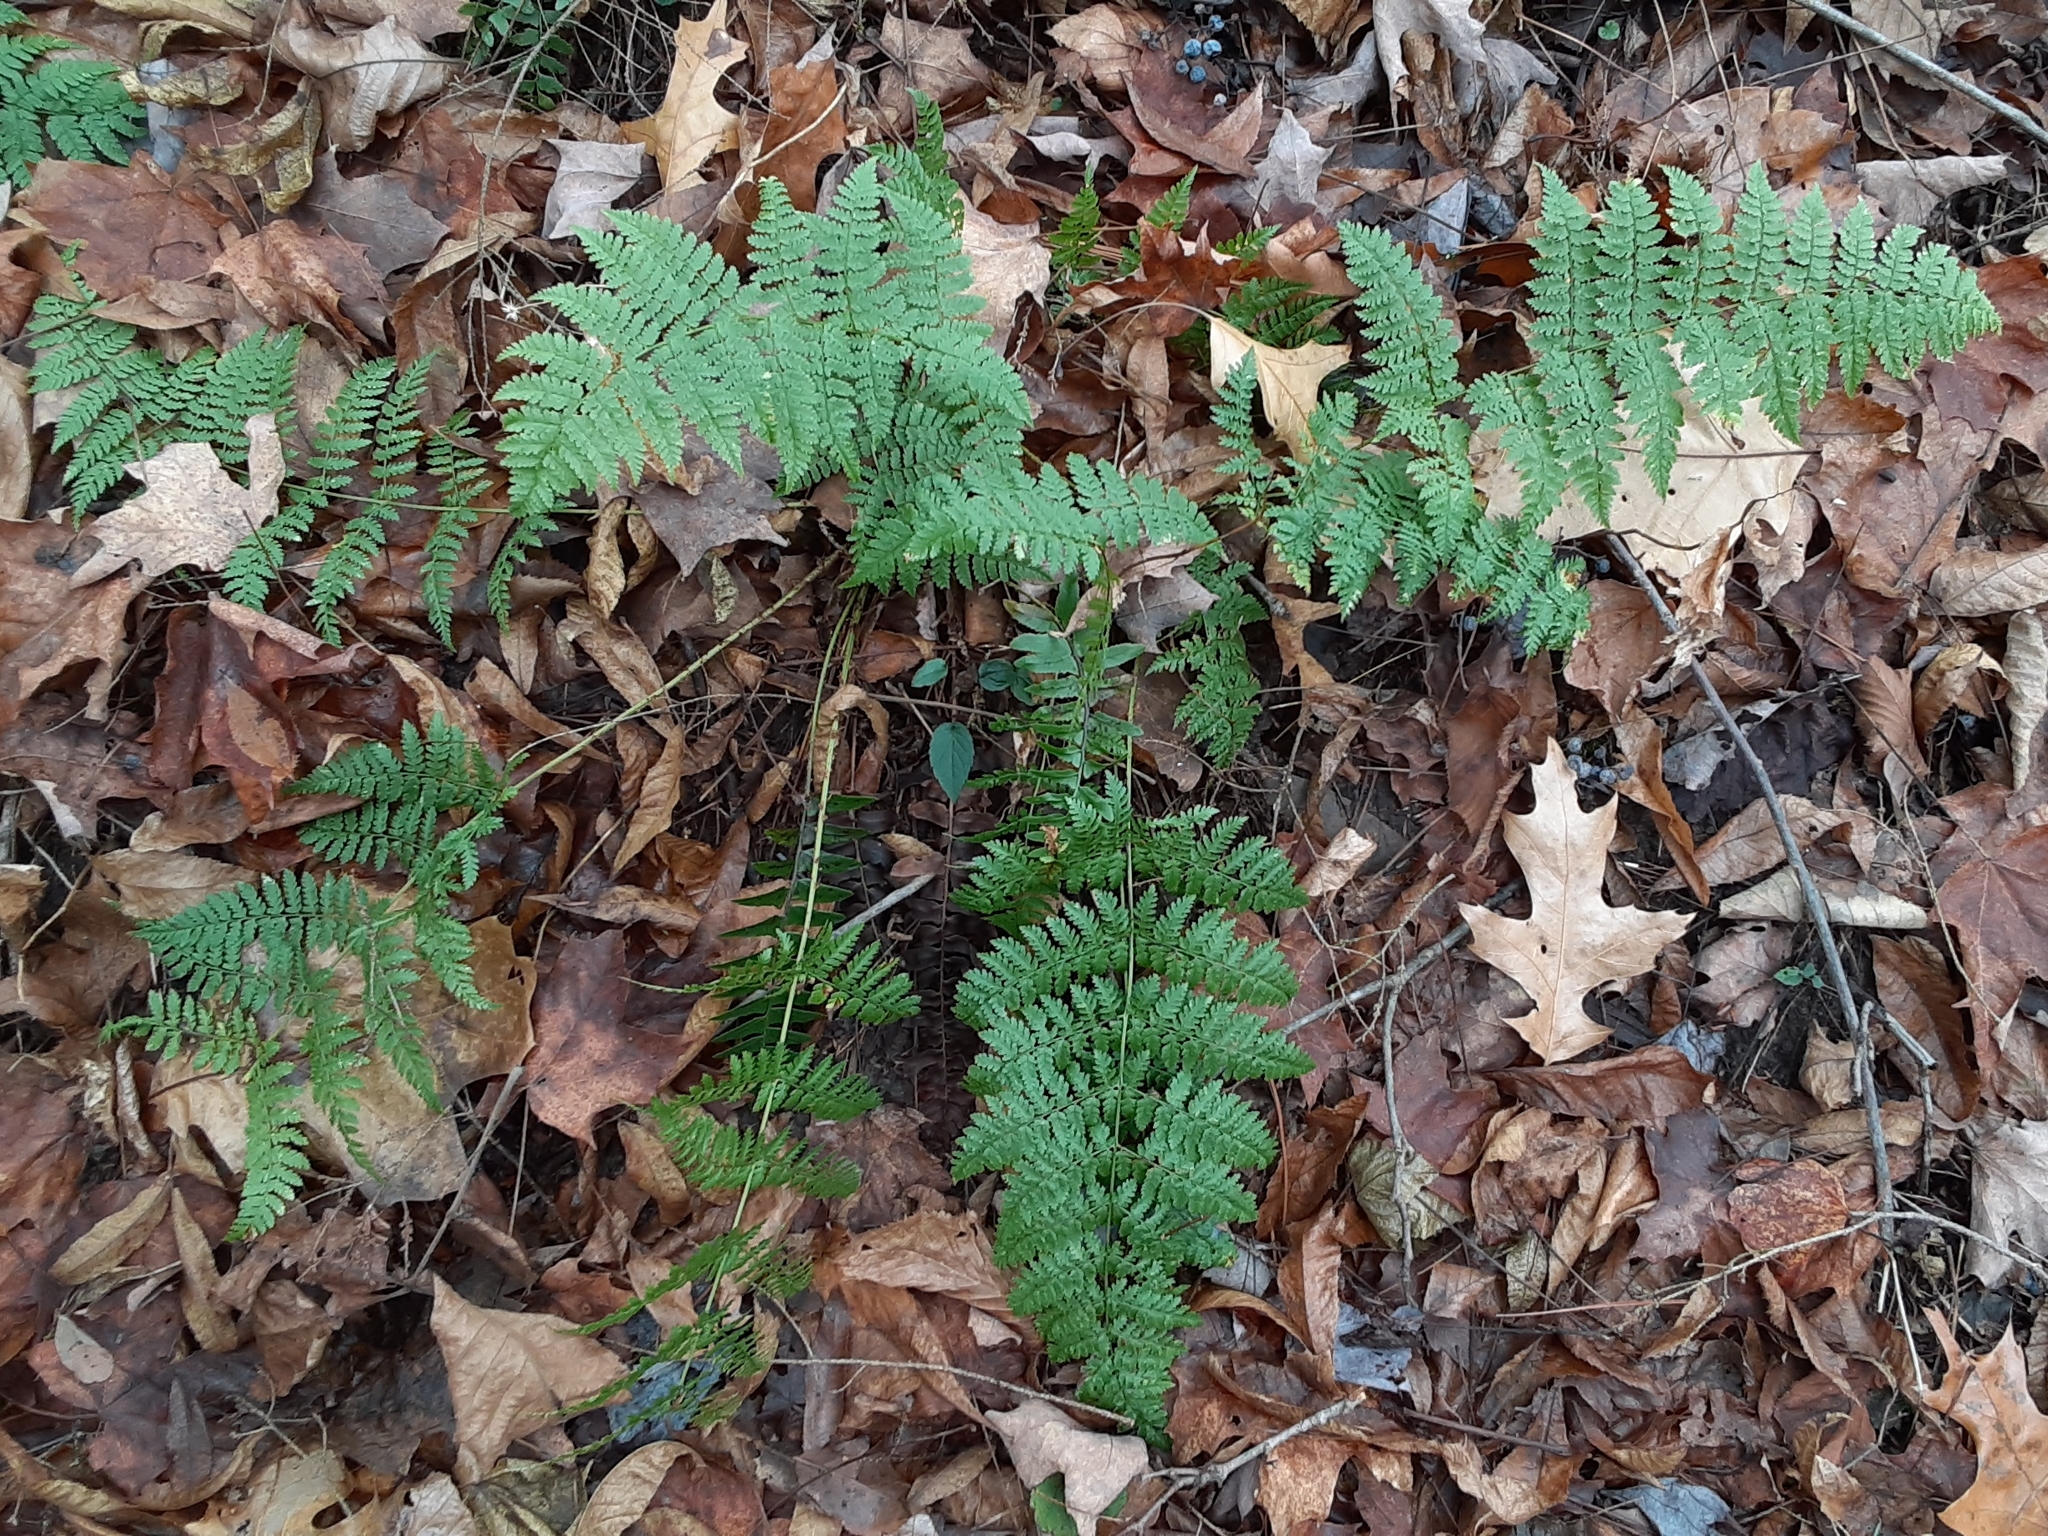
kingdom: Plantae
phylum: Tracheophyta
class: Polypodiopsida
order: Polypodiales
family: Dryopteridaceae
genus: Dryopteris
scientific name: Dryopteris intermedia
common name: Evergreen wood fern
